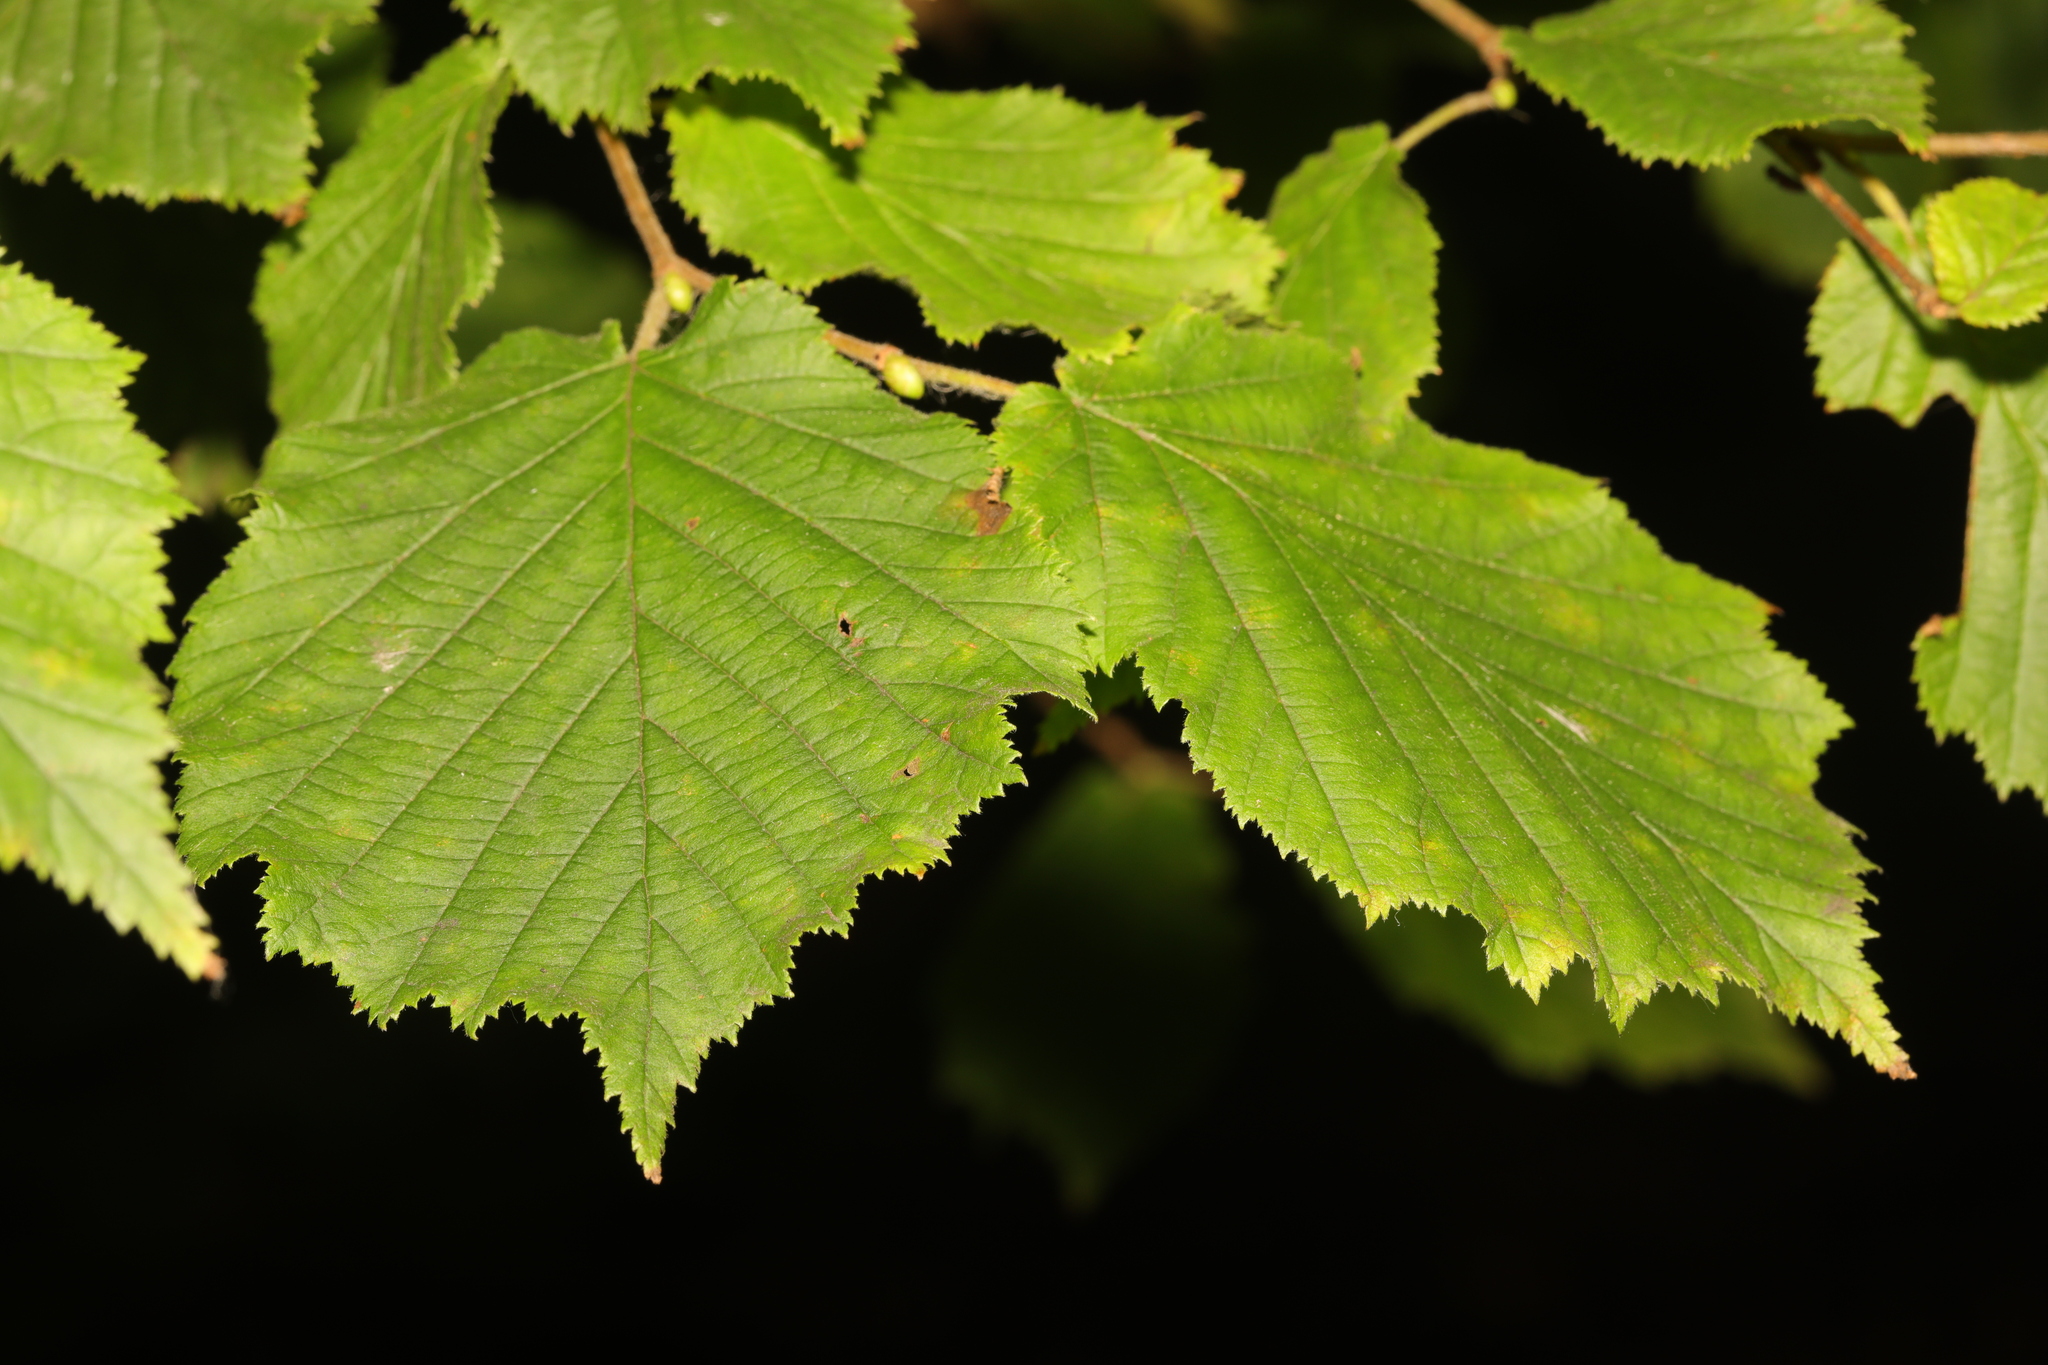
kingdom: Plantae
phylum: Tracheophyta
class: Magnoliopsida
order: Fagales
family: Betulaceae
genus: Corylus
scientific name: Corylus avellana
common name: European hazel
